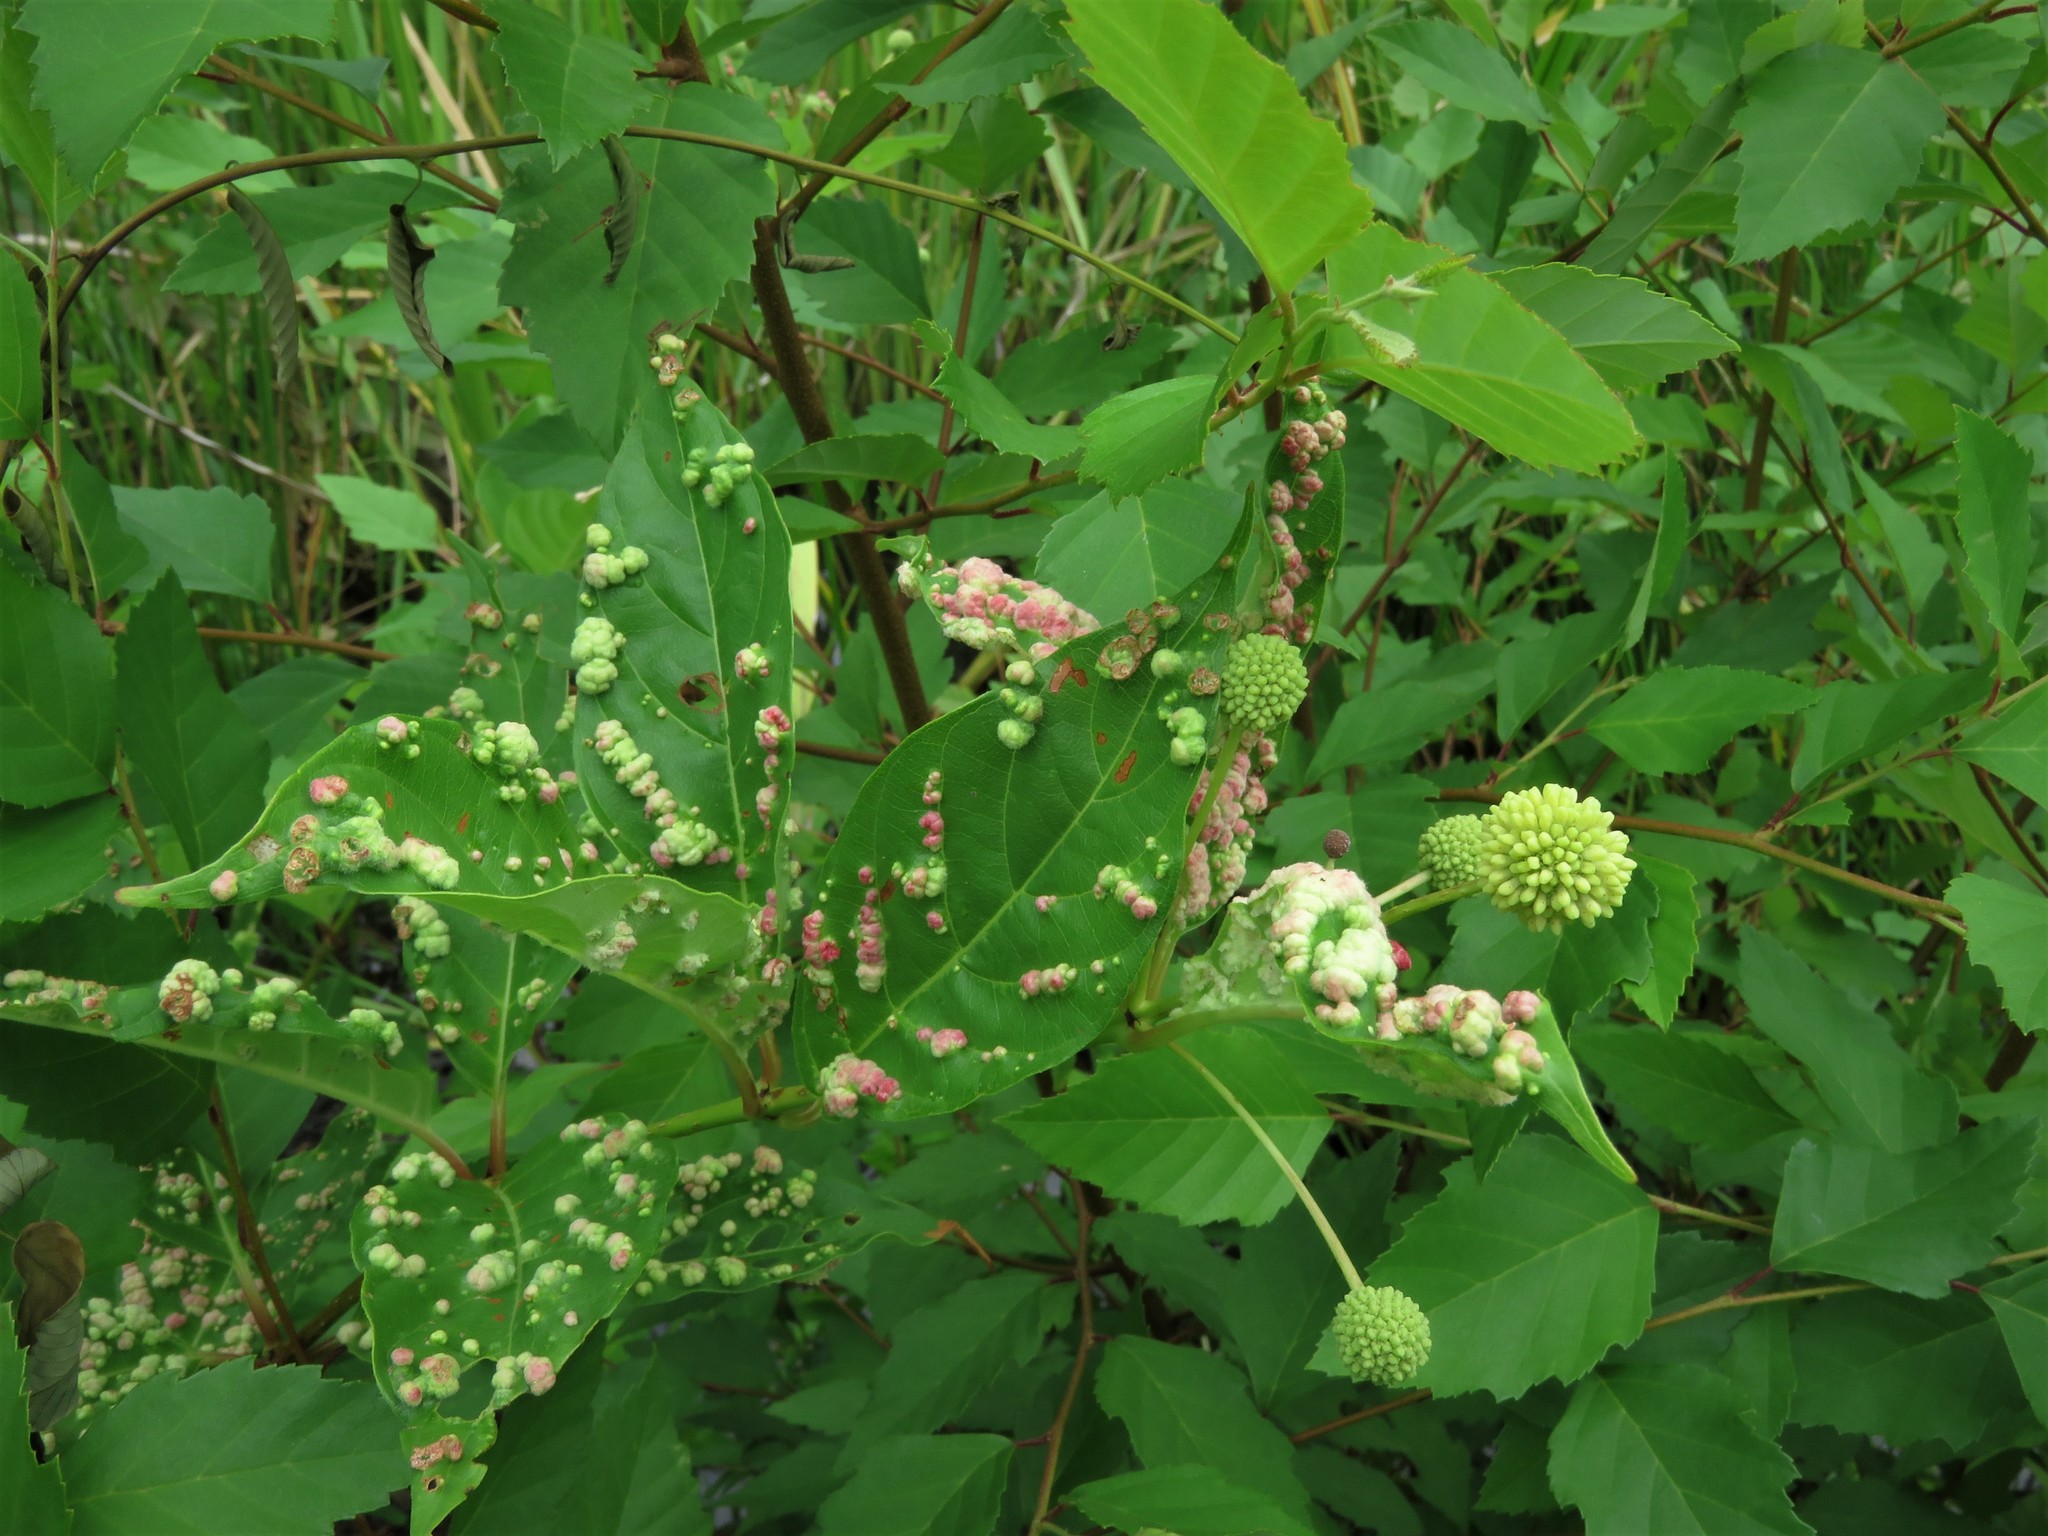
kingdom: Animalia
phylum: Arthropoda
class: Arachnida
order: Trombidiformes
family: Eriophyidae
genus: Aceria
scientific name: Aceria
